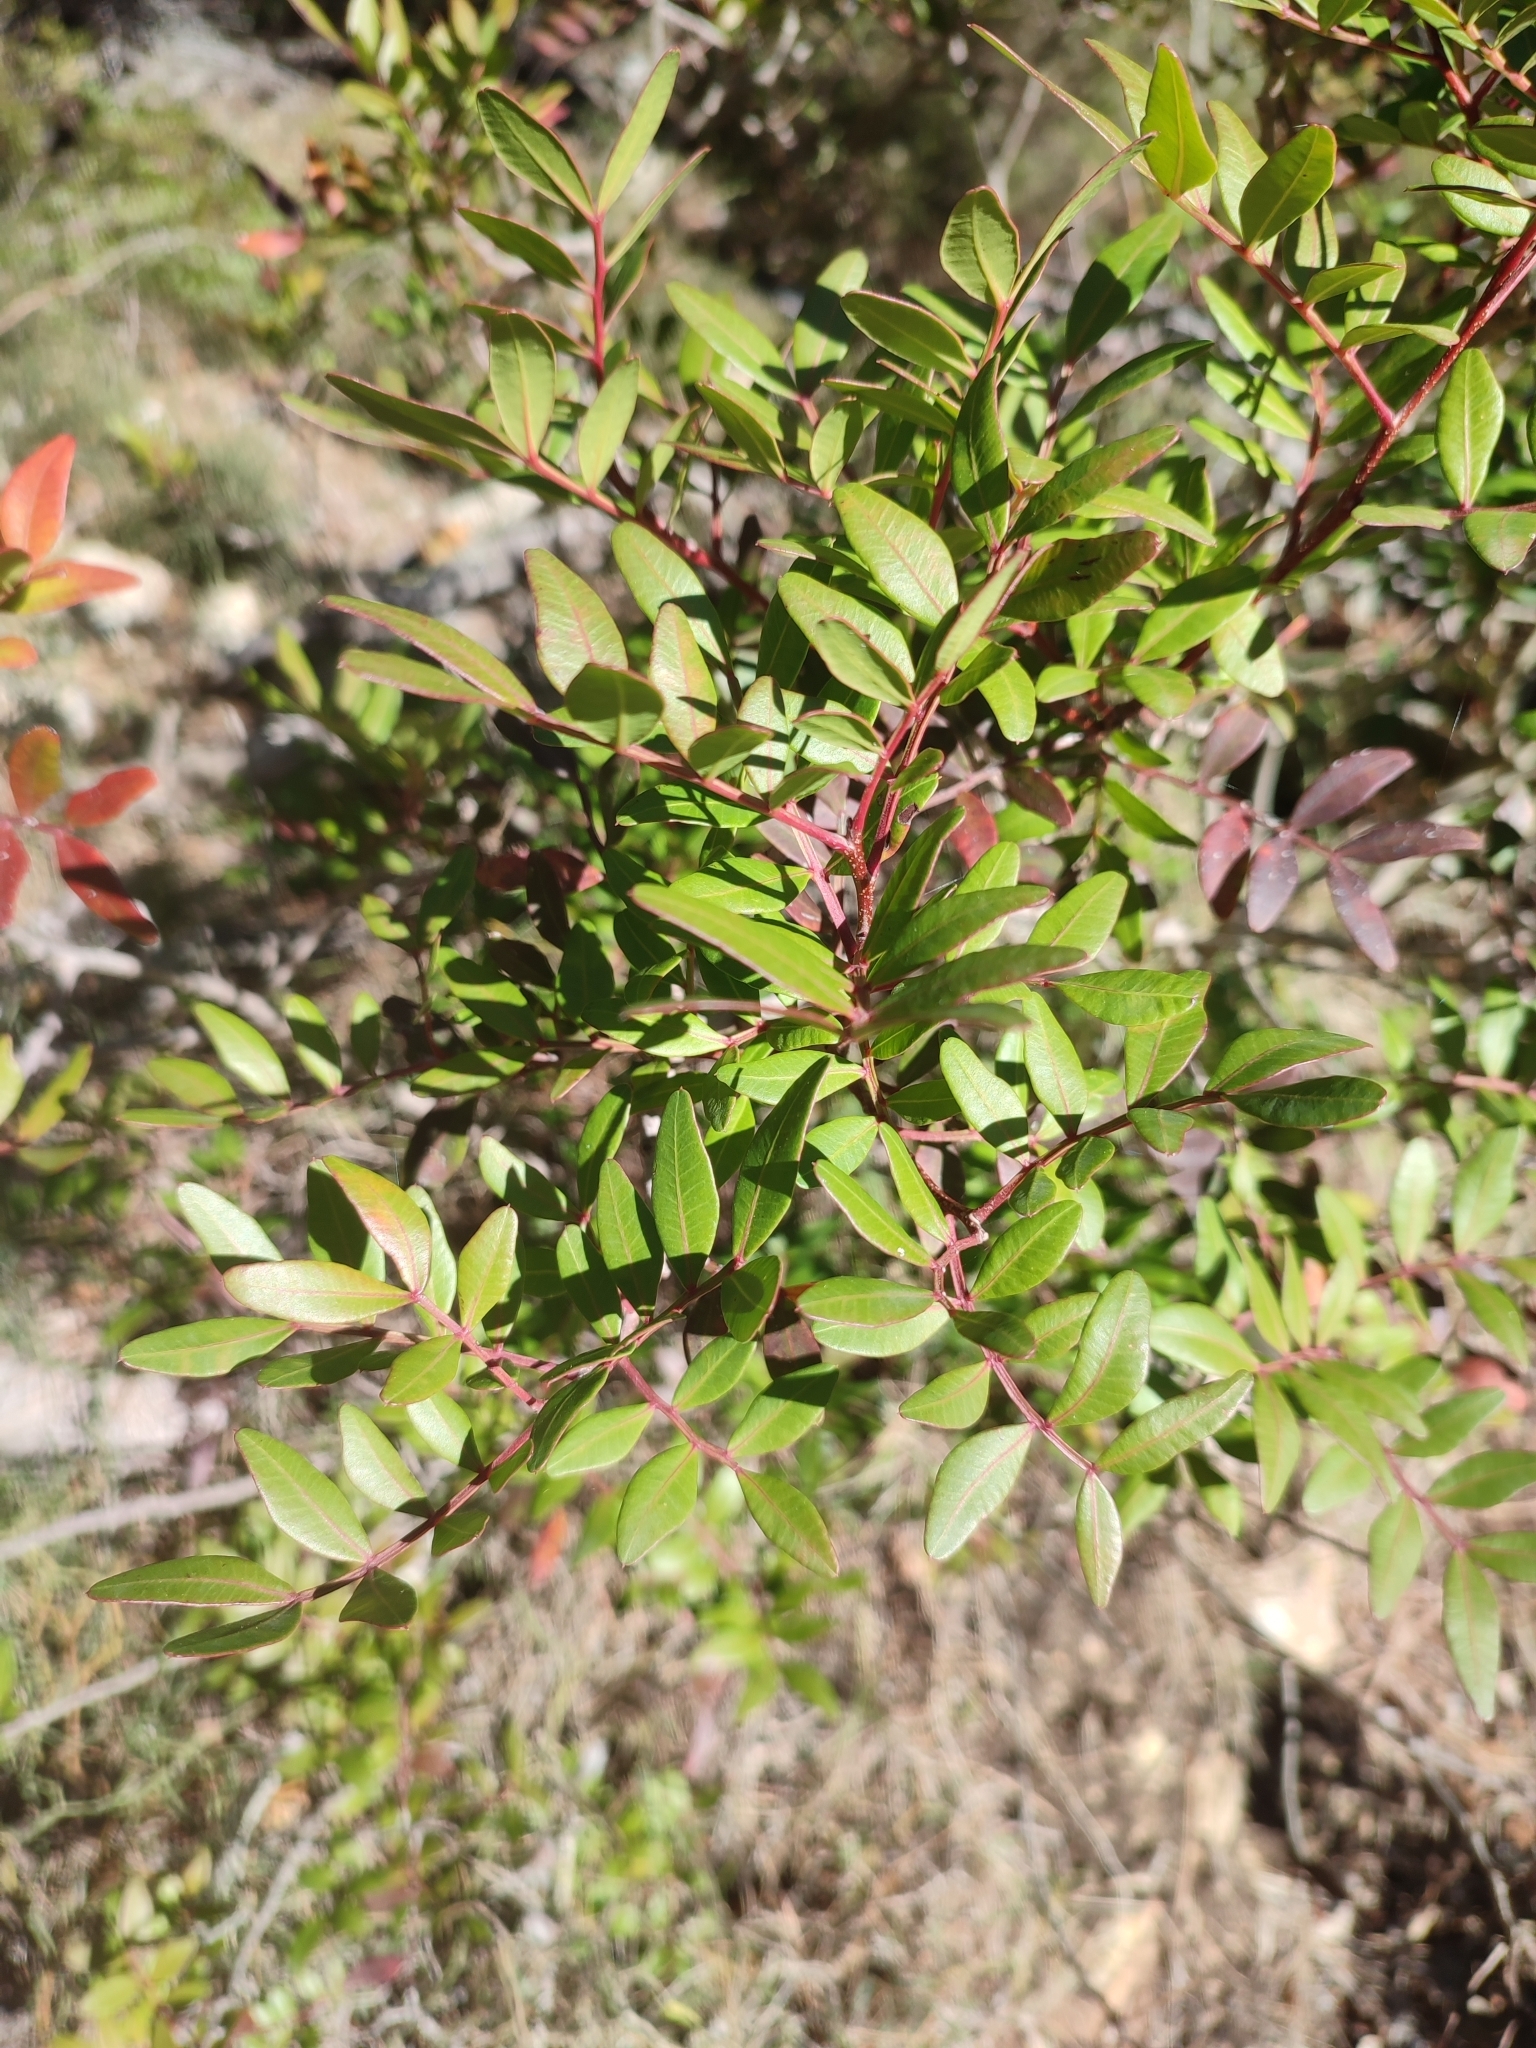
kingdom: Plantae
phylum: Tracheophyta
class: Magnoliopsida
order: Sapindales
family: Anacardiaceae
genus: Pistacia
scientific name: Pistacia lentiscus
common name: Lentisk
